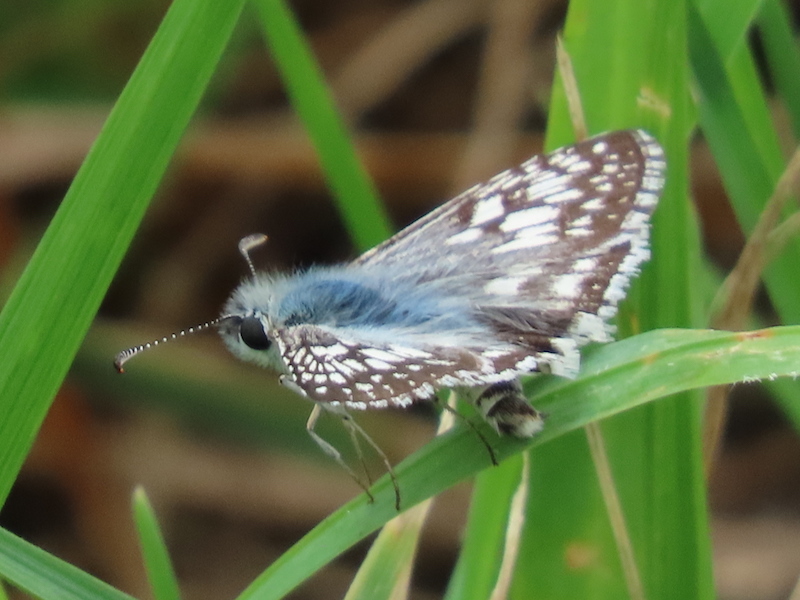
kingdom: Animalia
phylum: Arthropoda
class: Insecta
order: Lepidoptera
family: Hesperiidae
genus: Burnsius
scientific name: Burnsius communis
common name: Common checkered-skipper
